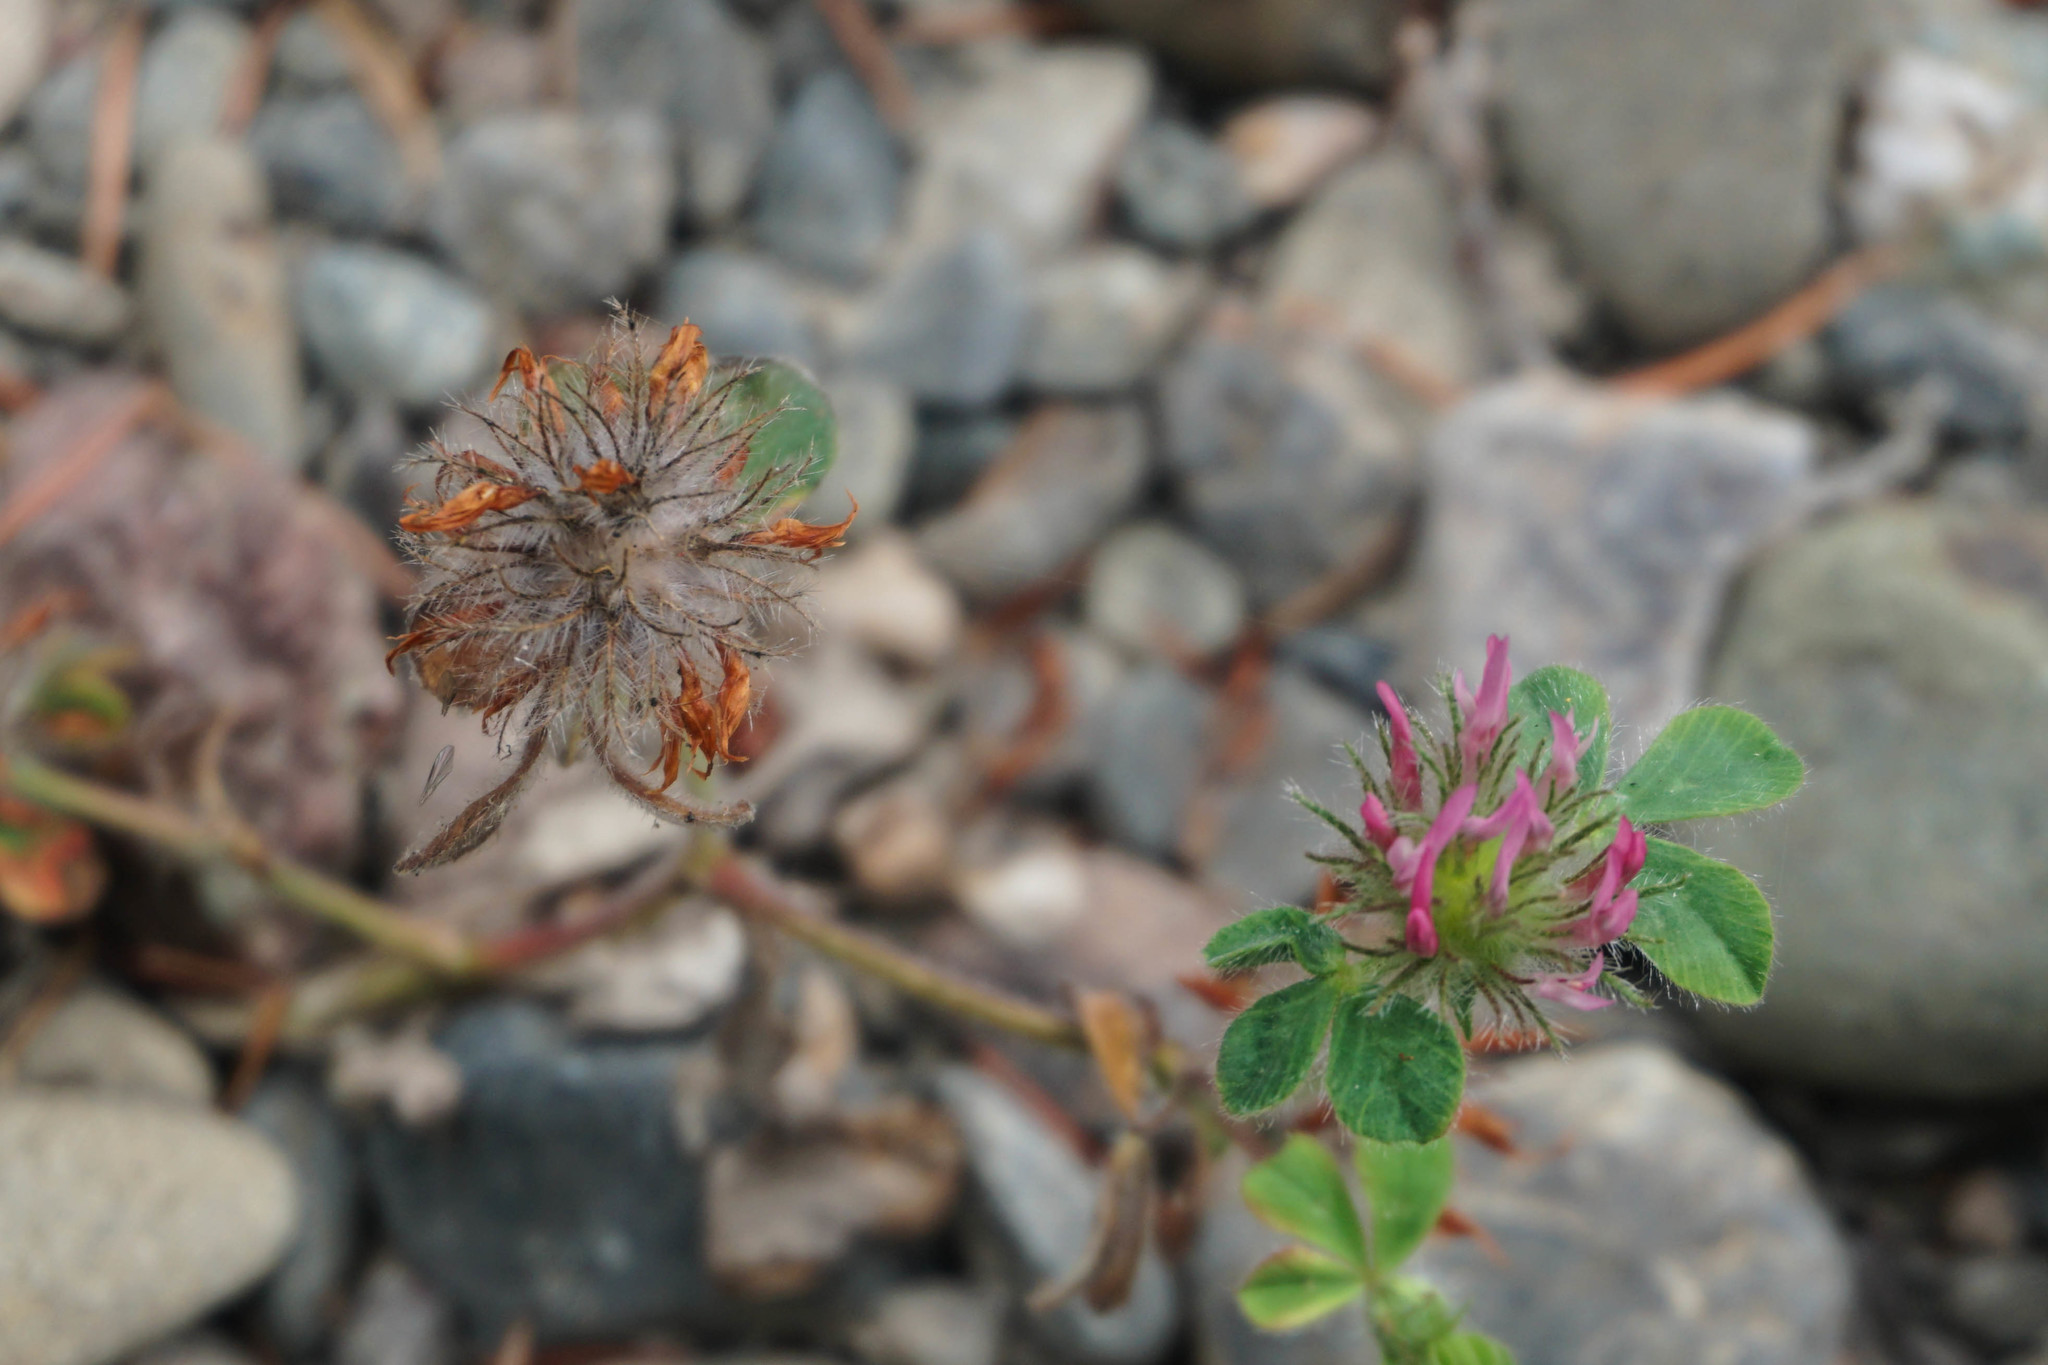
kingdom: Plantae
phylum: Tracheophyta
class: Magnoliopsida
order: Fabales
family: Fabaceae
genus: Trifolium
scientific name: Trifolium hirtum
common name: Rose clover
